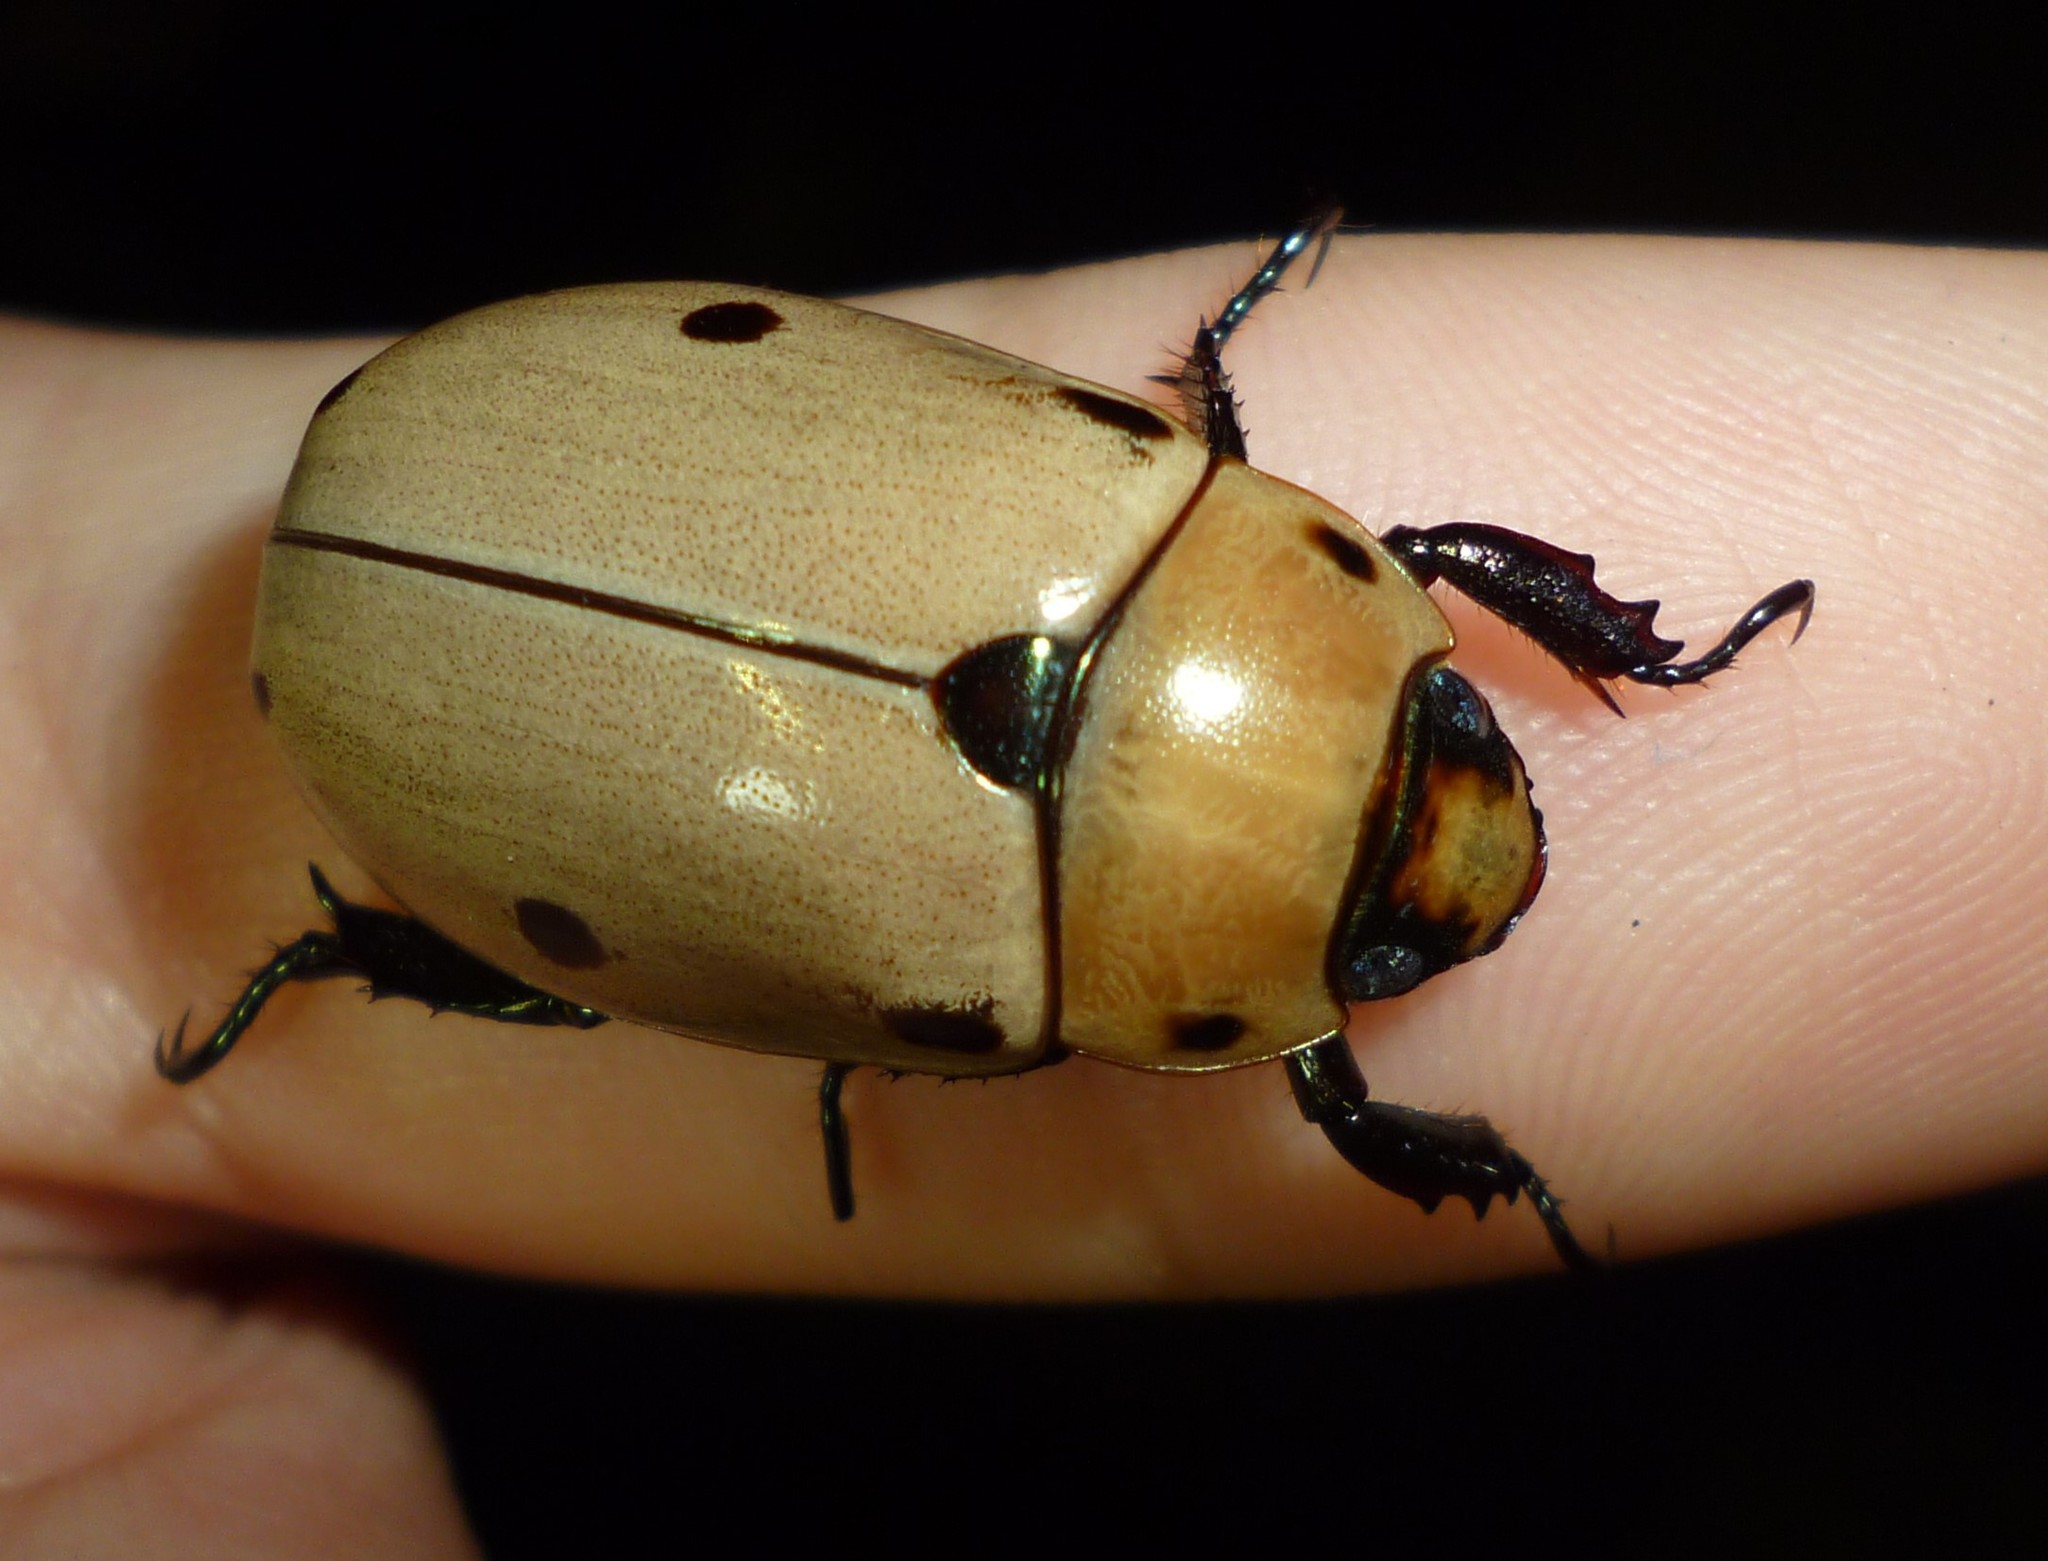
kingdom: Animalia
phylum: Arthropoda
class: Insecta
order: Coleoptera
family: Scarabaeidae
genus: Pelidnota
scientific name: Pelidnota punctata
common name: Grapevine beetle
